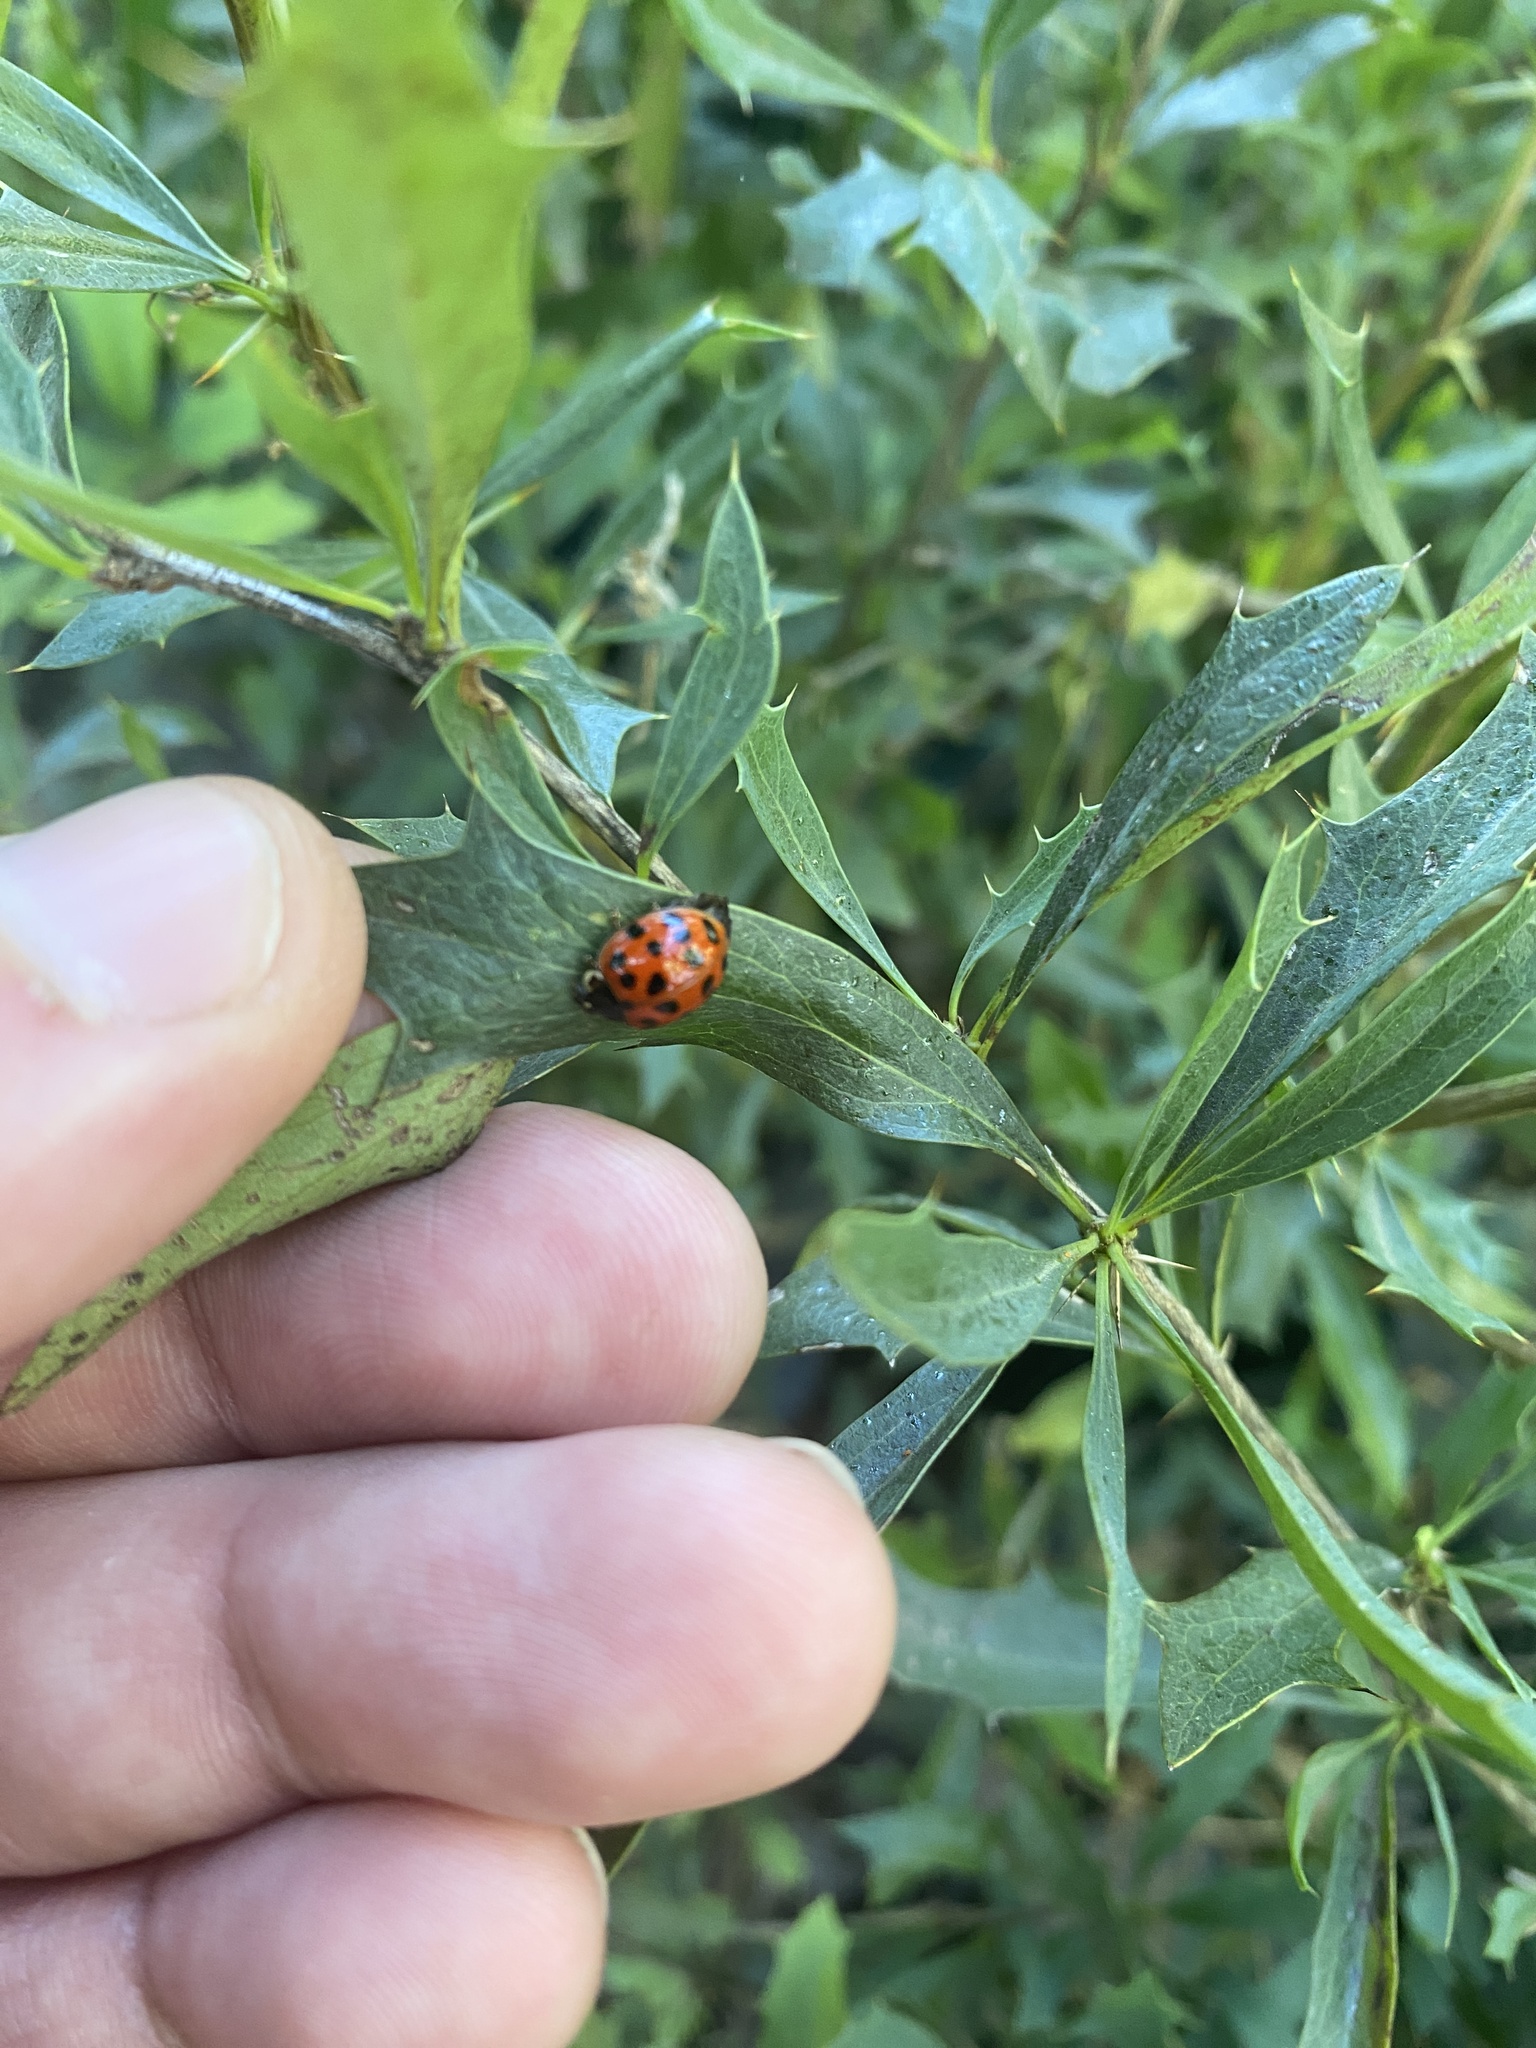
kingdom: Animalia
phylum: Arthropoda
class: Insecta
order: Coleoptera
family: Coccinellidae
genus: Harmonia
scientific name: Harmonia axyridis
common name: Harlequin ladybird
